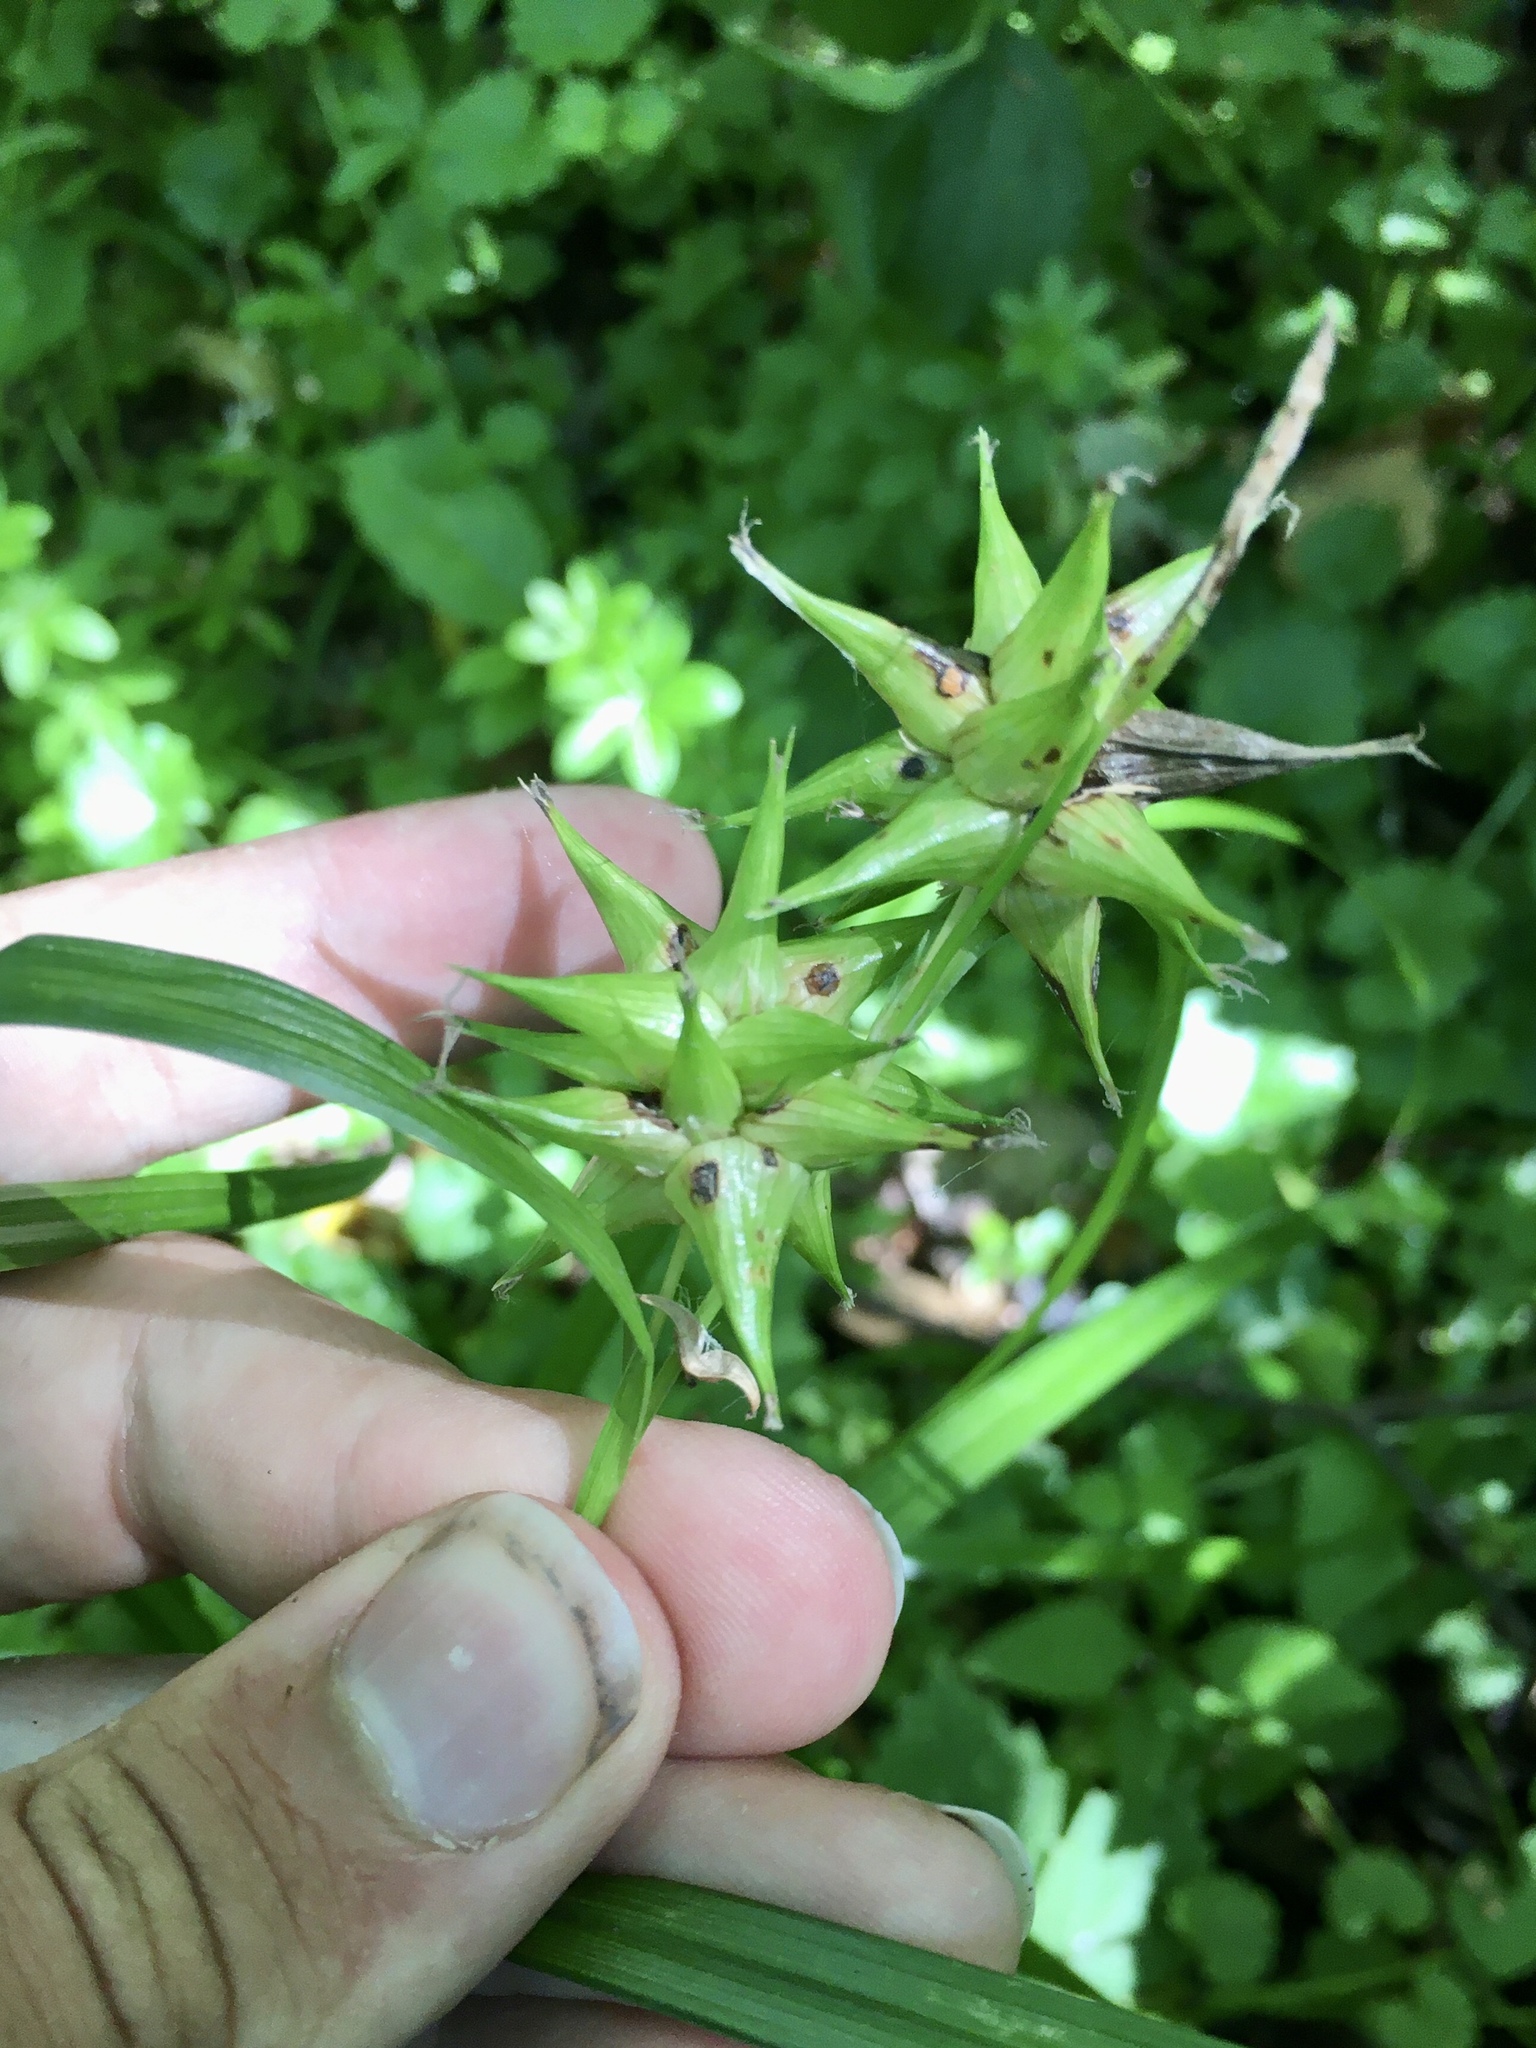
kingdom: Plantae
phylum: Tracheophyta
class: Liliopsida
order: Poales
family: Cyperaceae
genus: Carex
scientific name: Carex grayi
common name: Asa gray's sedge
